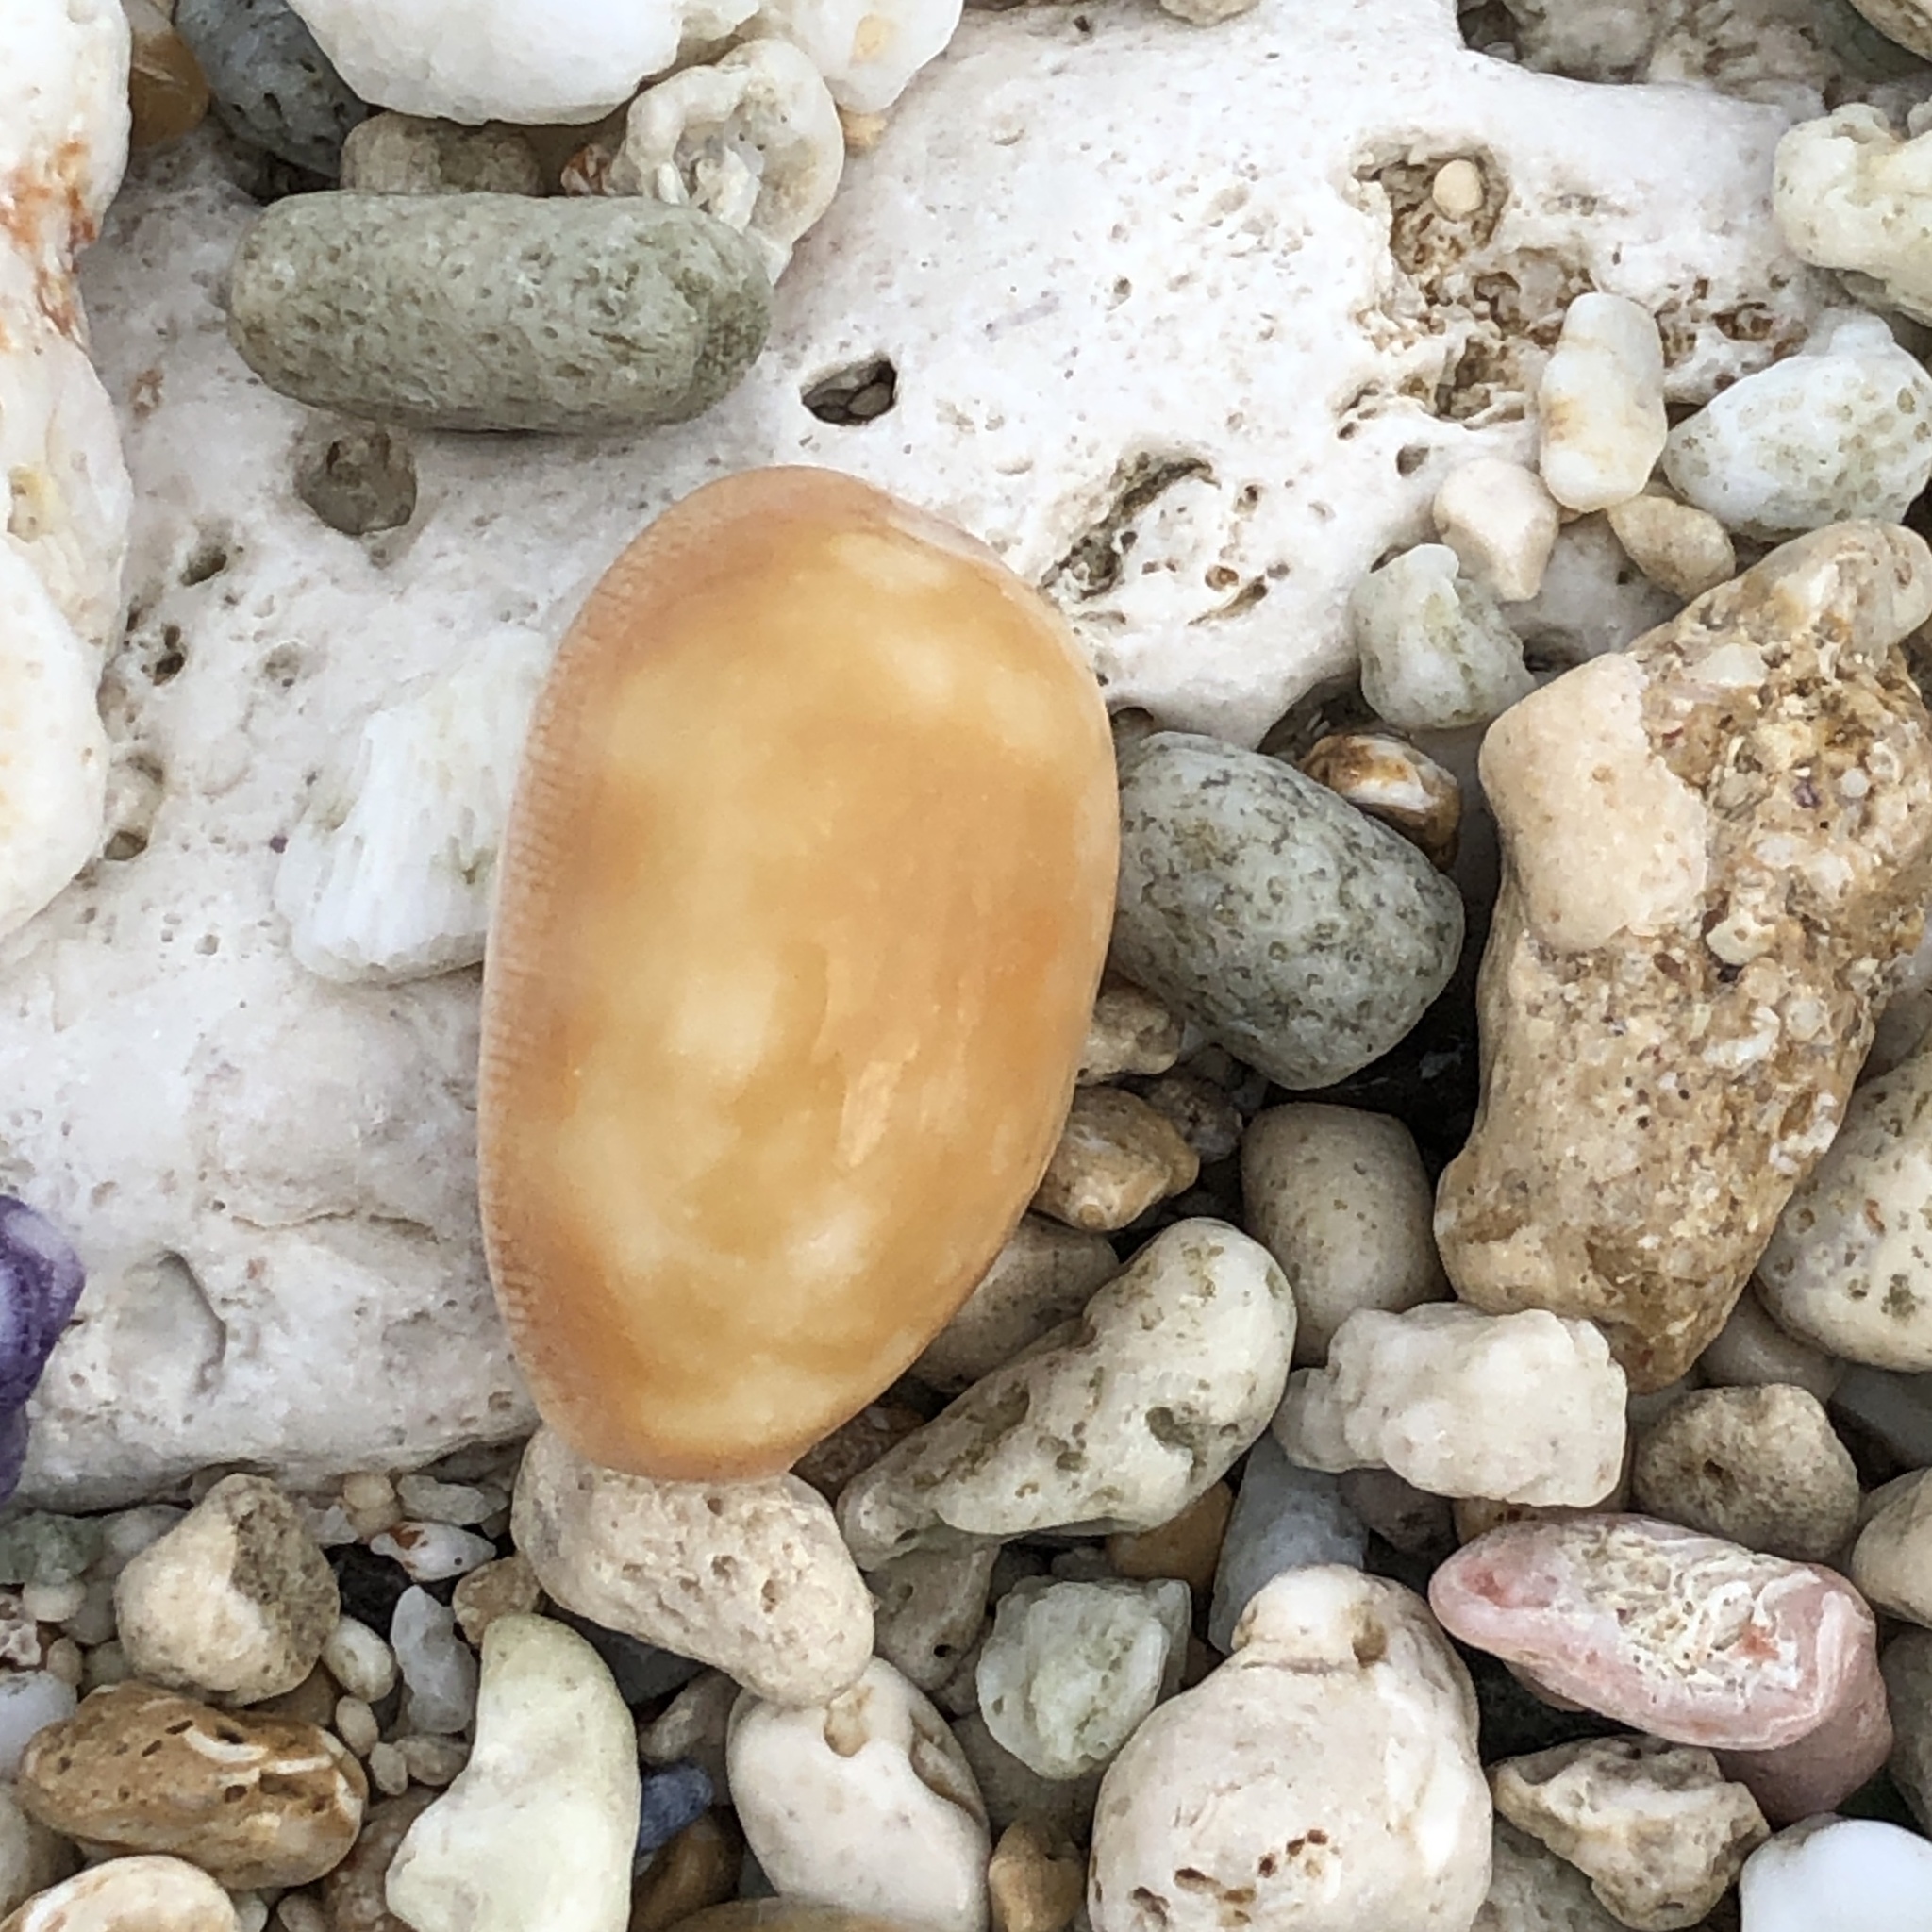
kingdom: Animalia
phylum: Mollusca
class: Gastropoda
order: Littorinimorpha
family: Cypraeidae
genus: Lyncina
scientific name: Lyncina carneola
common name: Purple-mouthed cowry
